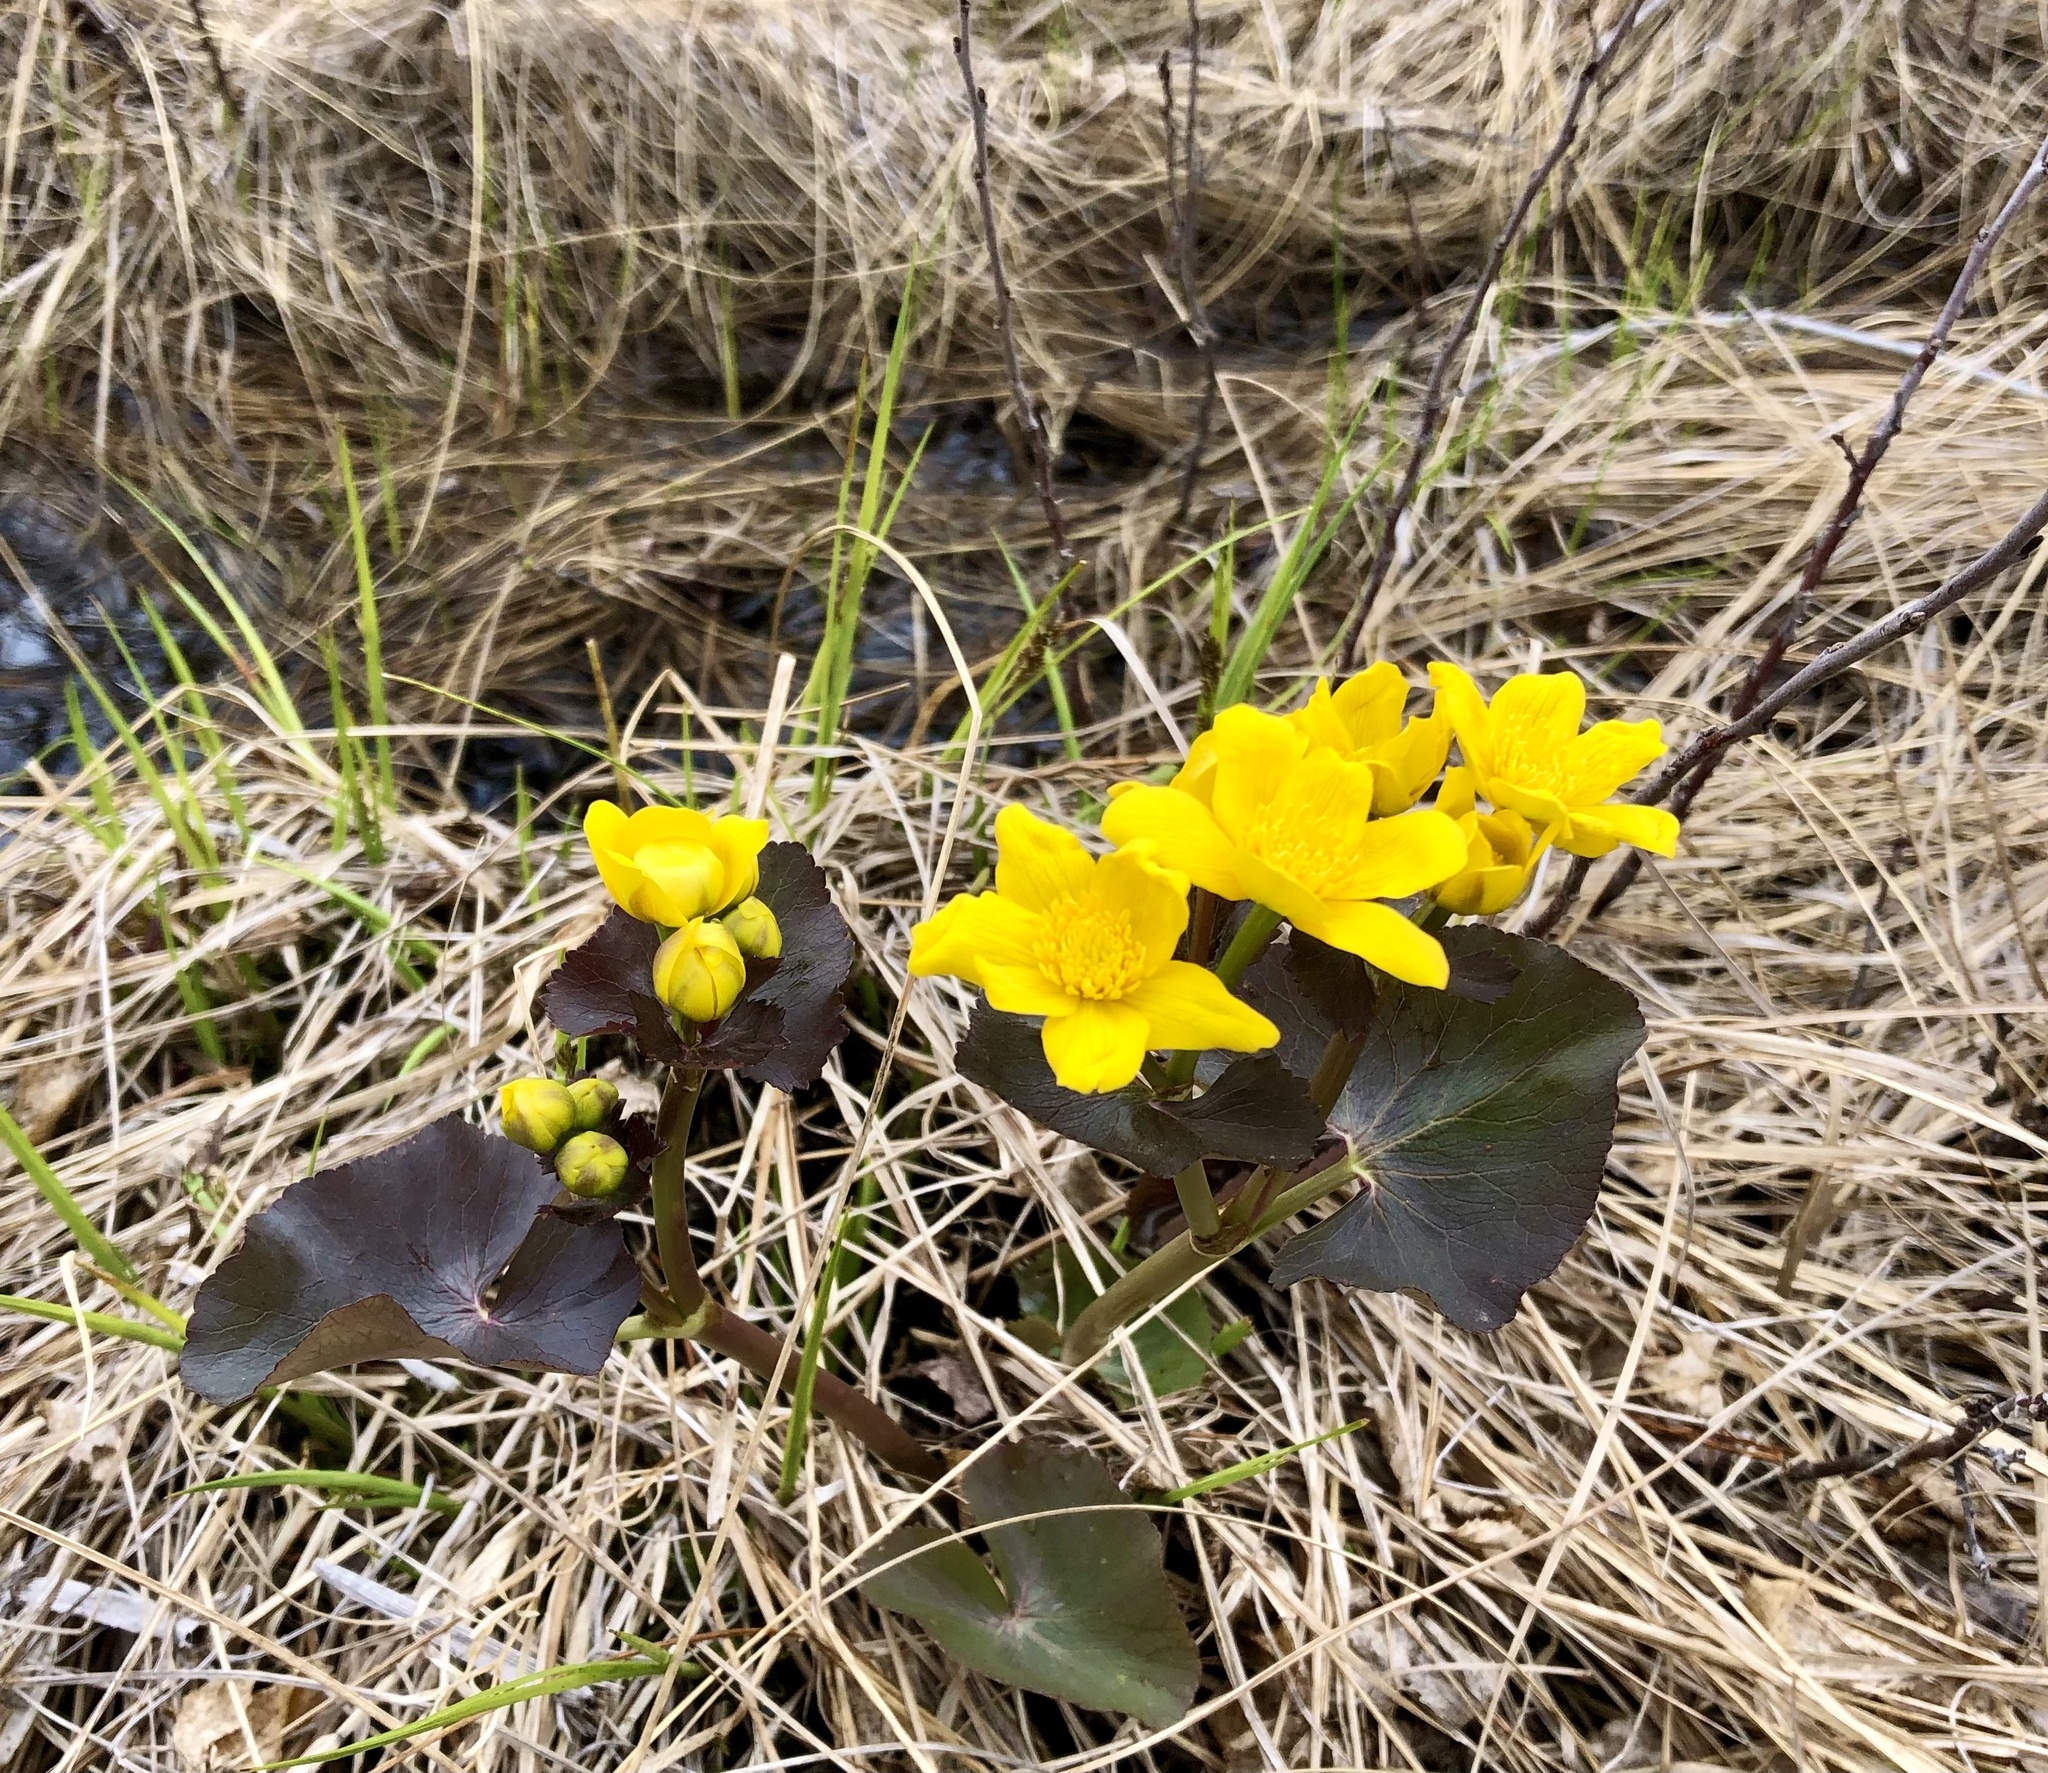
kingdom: Plantae
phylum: Tracheophyta
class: Magnoliopsida
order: Ranunculales
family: Ranunculaceae
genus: Caltha
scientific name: Caltha palustris
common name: Marsh marigold
